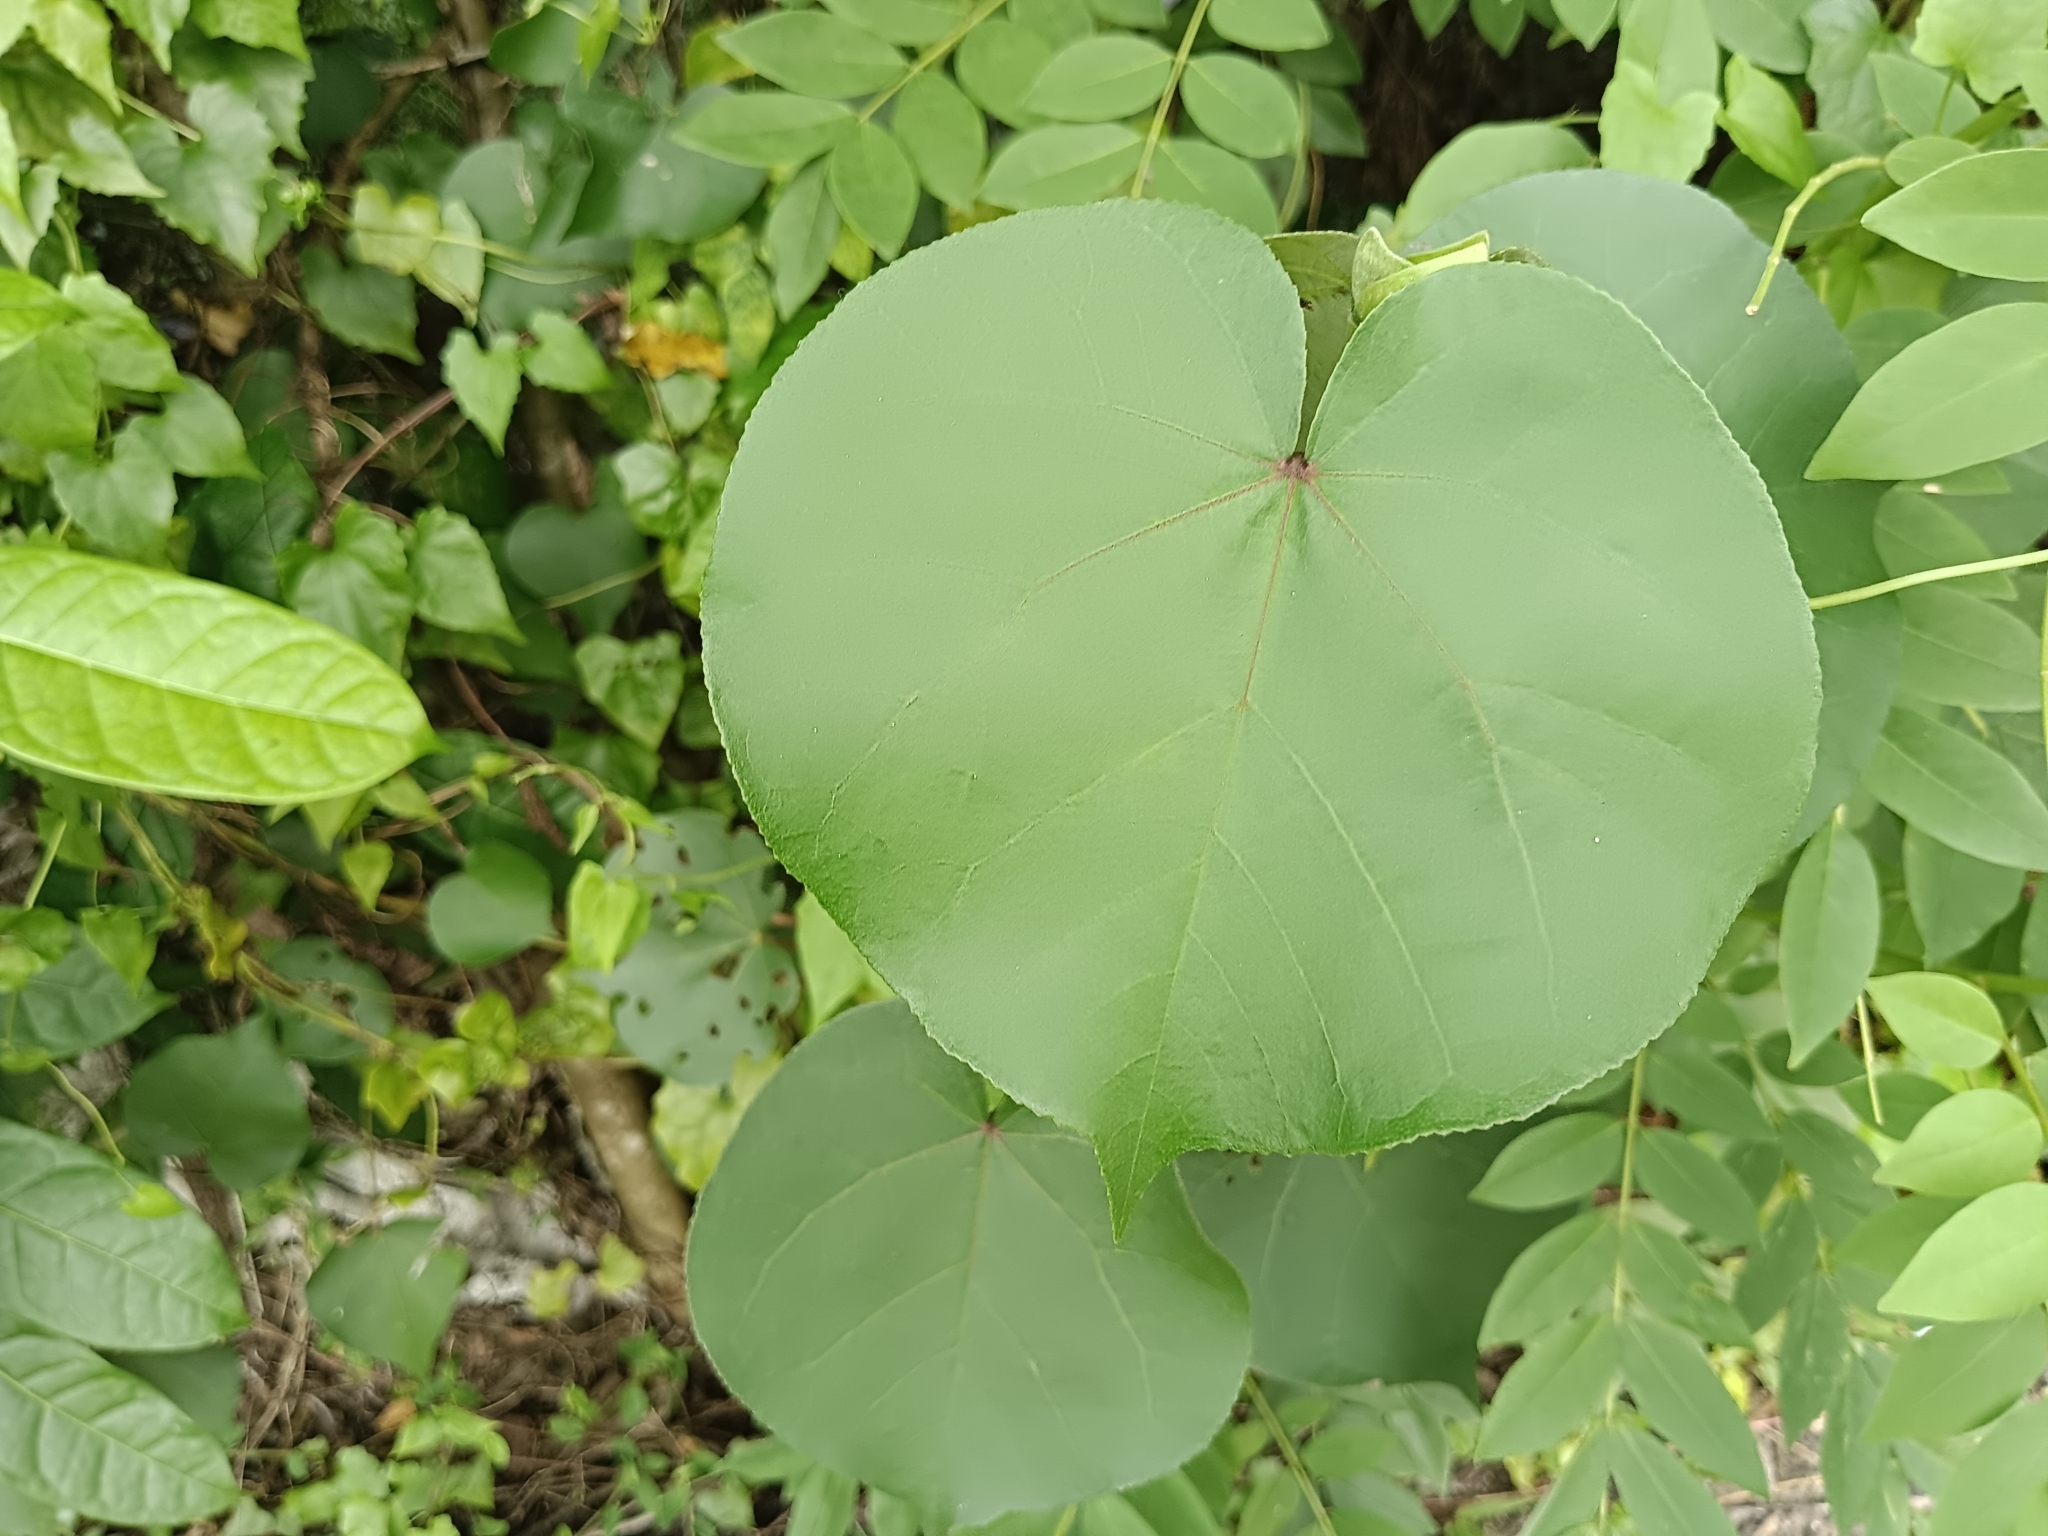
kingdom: Plantae
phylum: Tracheophyta
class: Magnoliopsida
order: Malvales
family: Malvaceae
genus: Talipariti
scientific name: Talipariti tiliaceum
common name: Sea hibiscus
